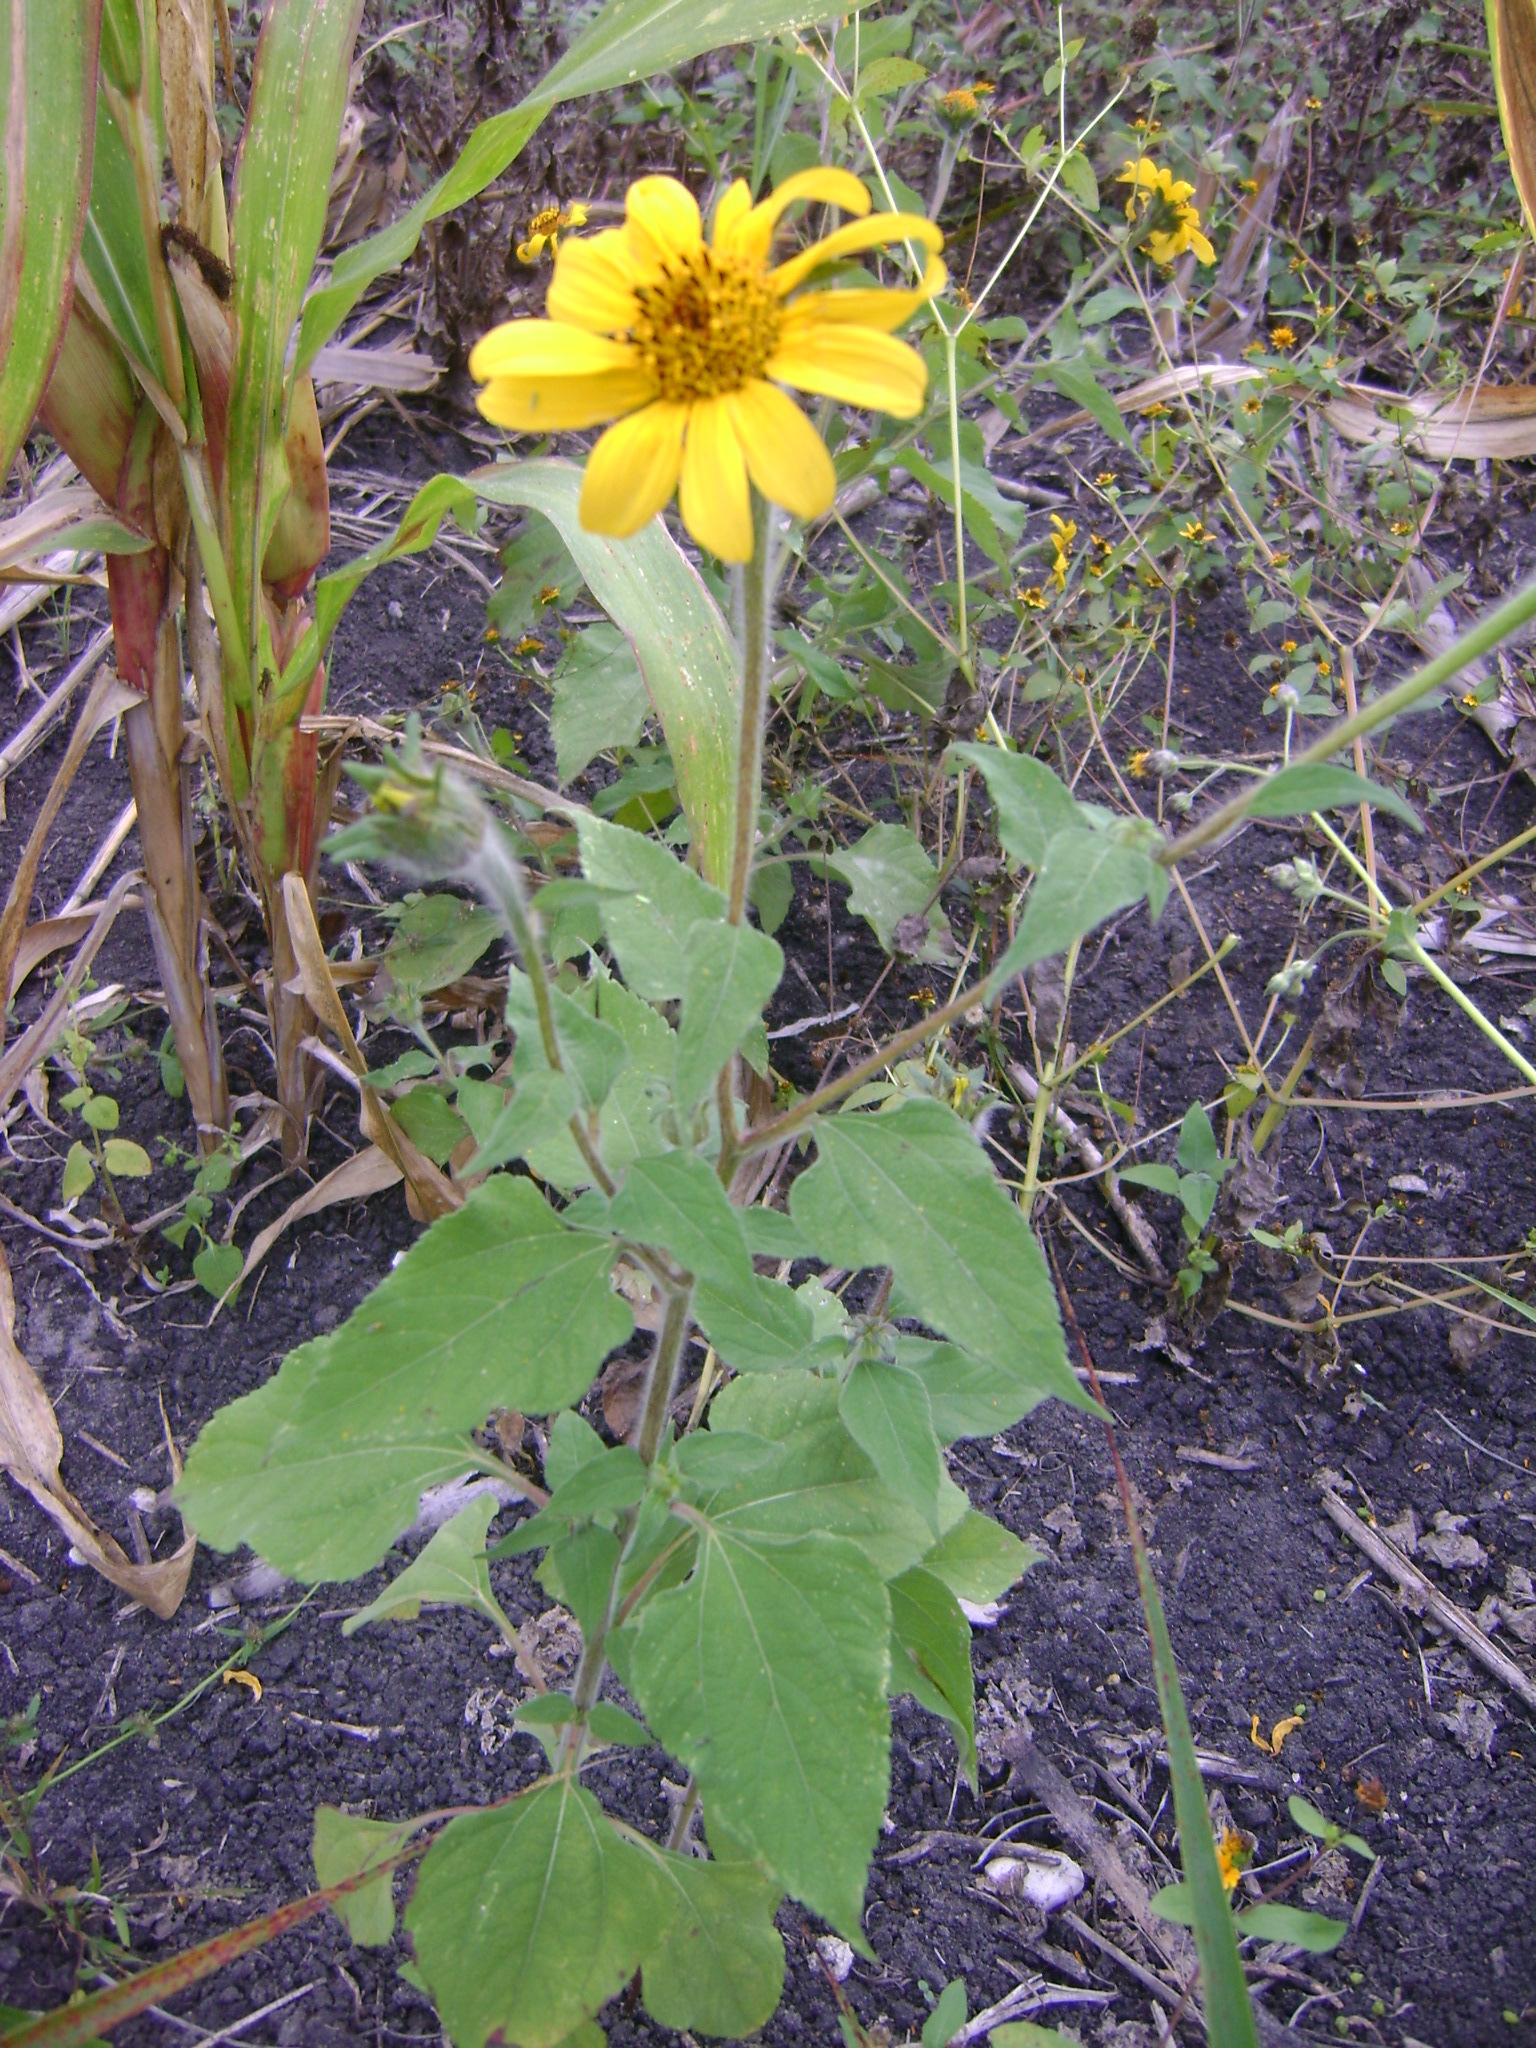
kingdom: Plantae
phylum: Tracheophyta
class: Magnoliopsida
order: Asterales
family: Asteraceae
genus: Tithonia
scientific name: Tithonia tubaeformis
